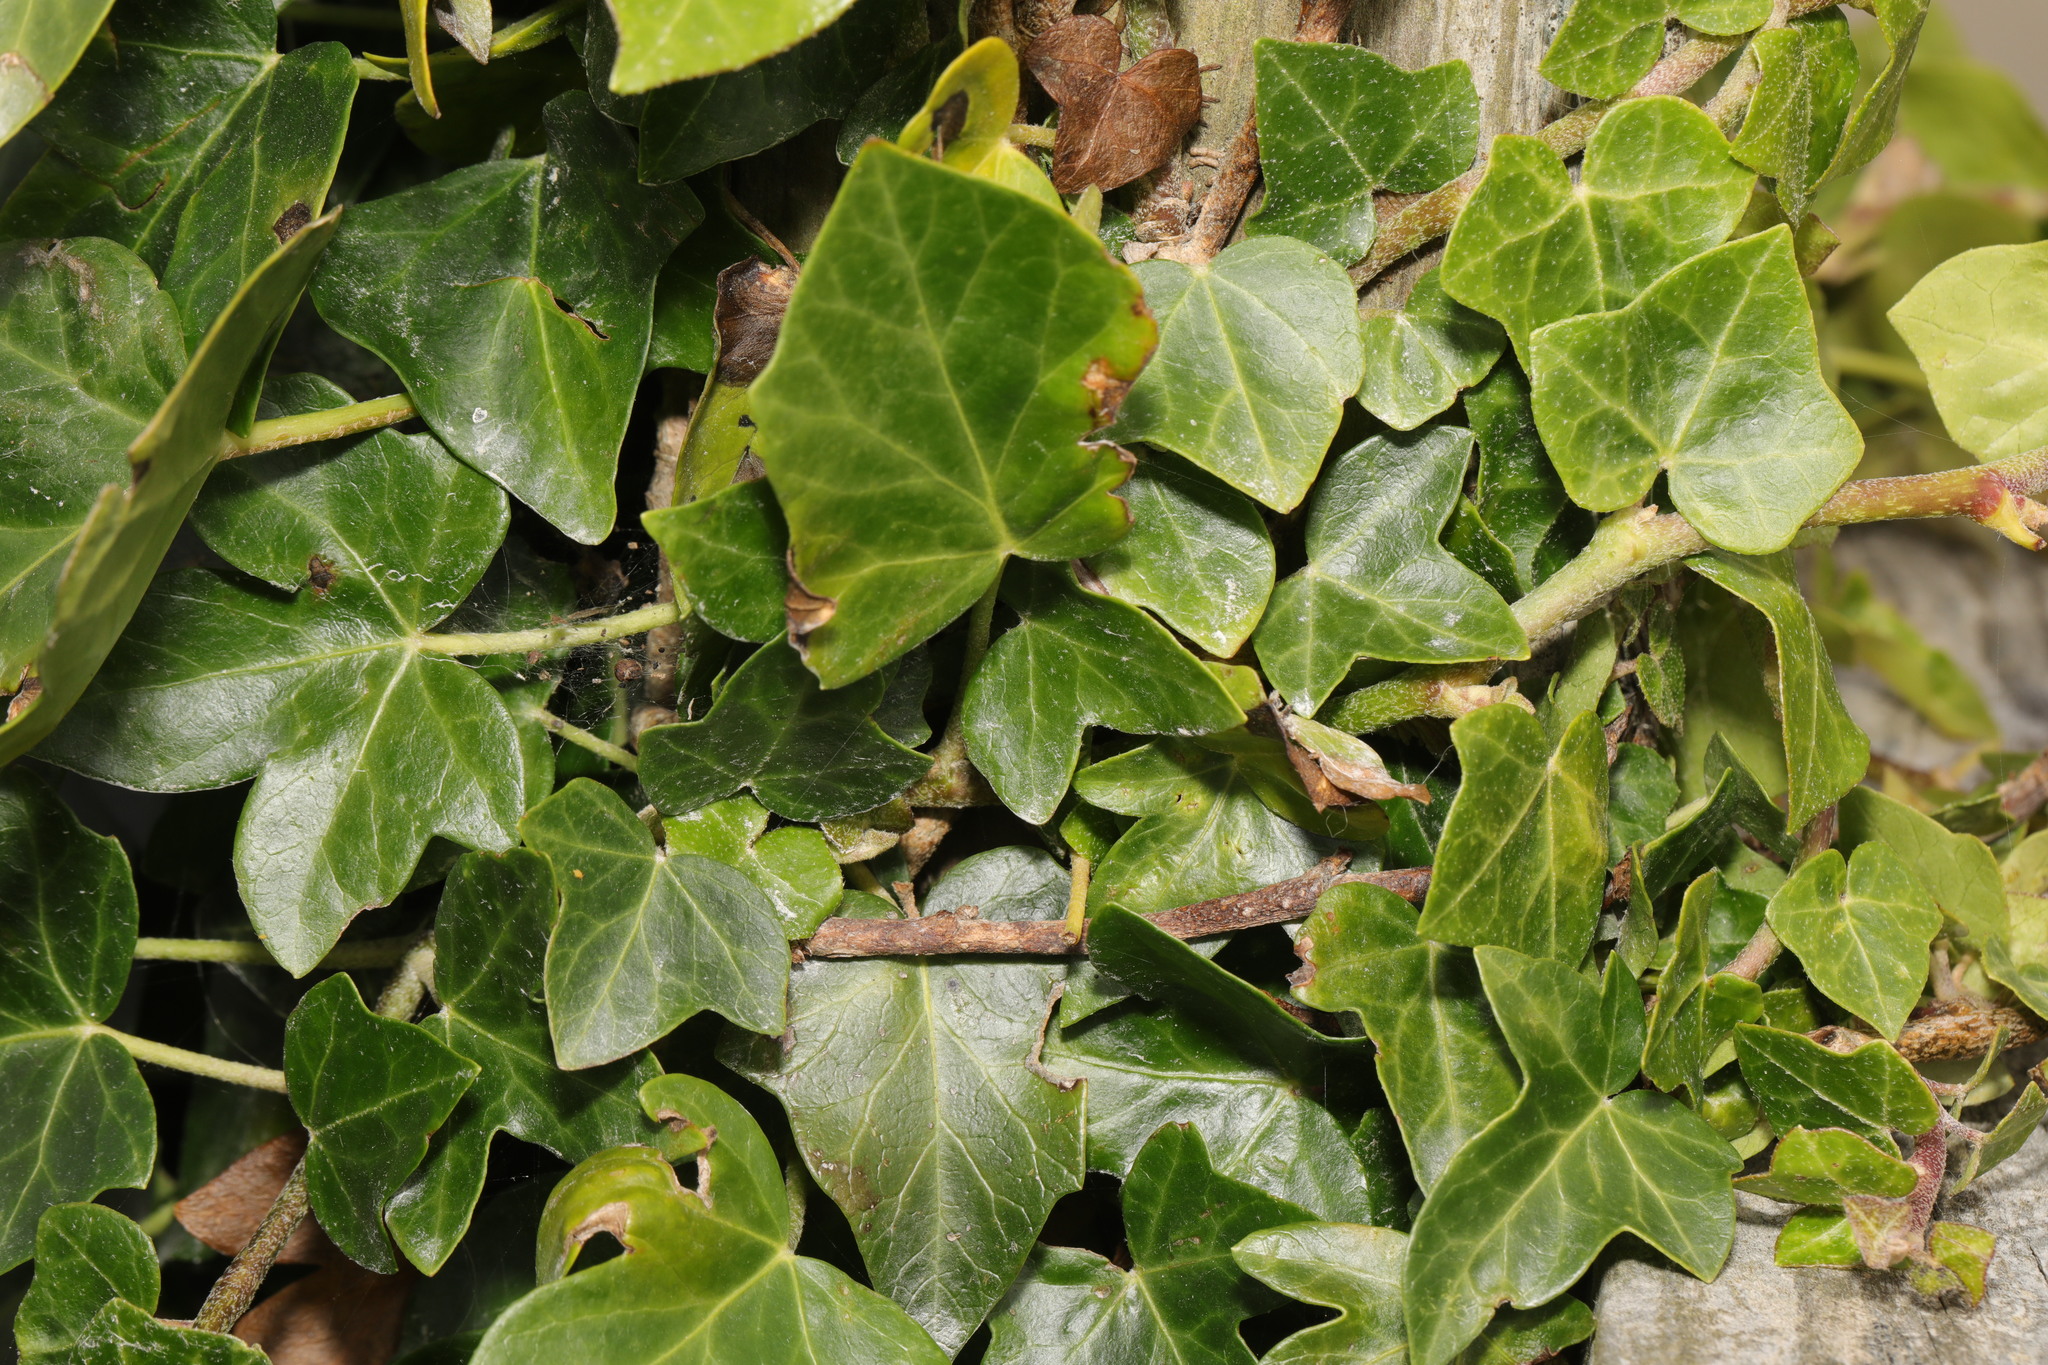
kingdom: Plantae
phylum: Tracheophyta
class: Magnoliopsida
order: Apiales
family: Araliaceae
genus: Hedera
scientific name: Hedera helix
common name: Ivy
